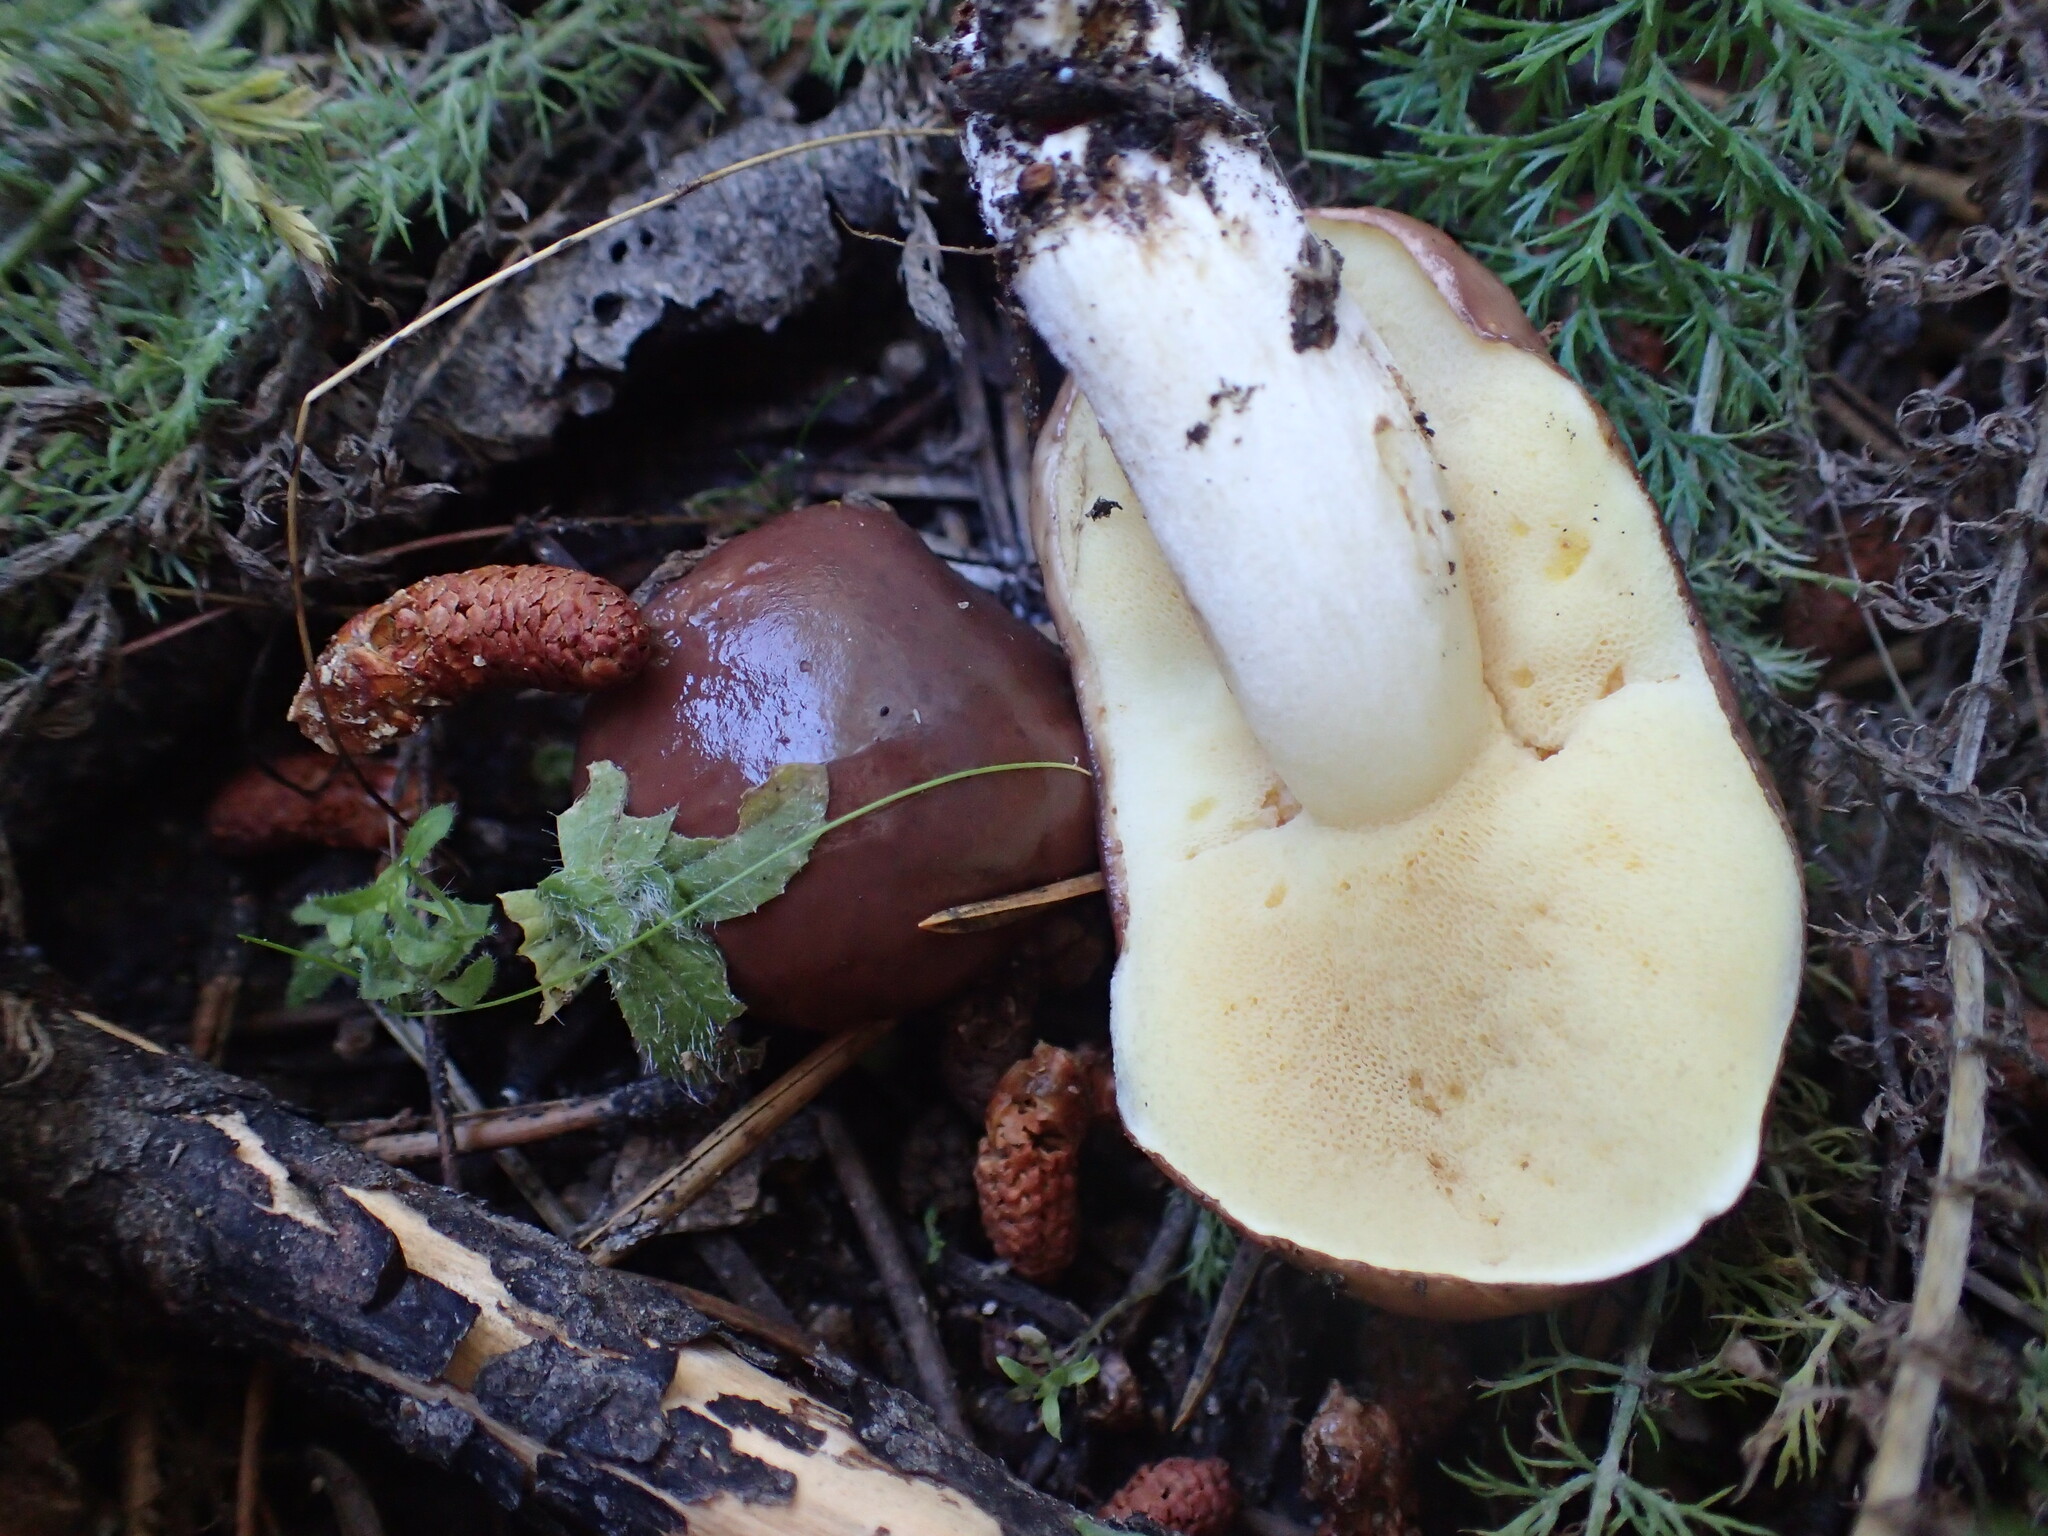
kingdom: Fungi
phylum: Basidiomycota
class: Agaricomycetes
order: Boletales
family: Suillaceae
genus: Suillus
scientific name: Suillus brevipes
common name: Short-stalked suillus
